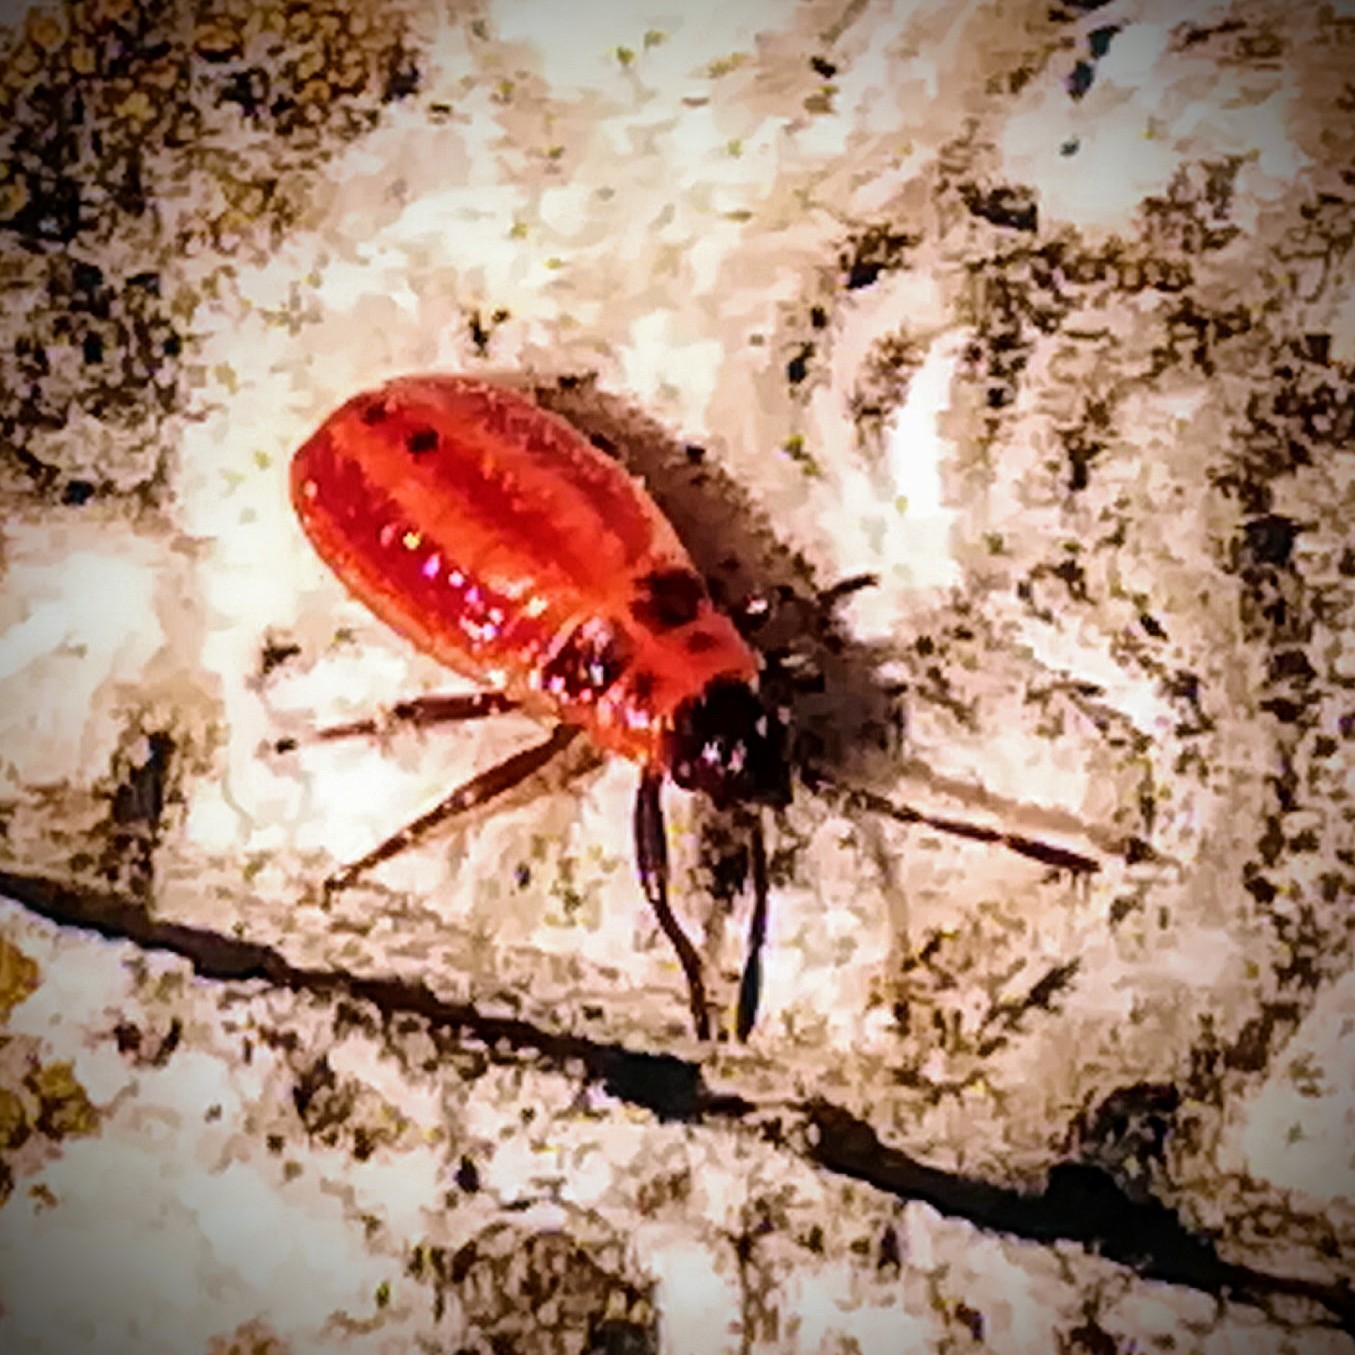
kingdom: Animalia
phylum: Arthropoda
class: Insecta
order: Hemiptera
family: Lygaeidae
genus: Lygaeus
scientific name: Lygaeus creticus
